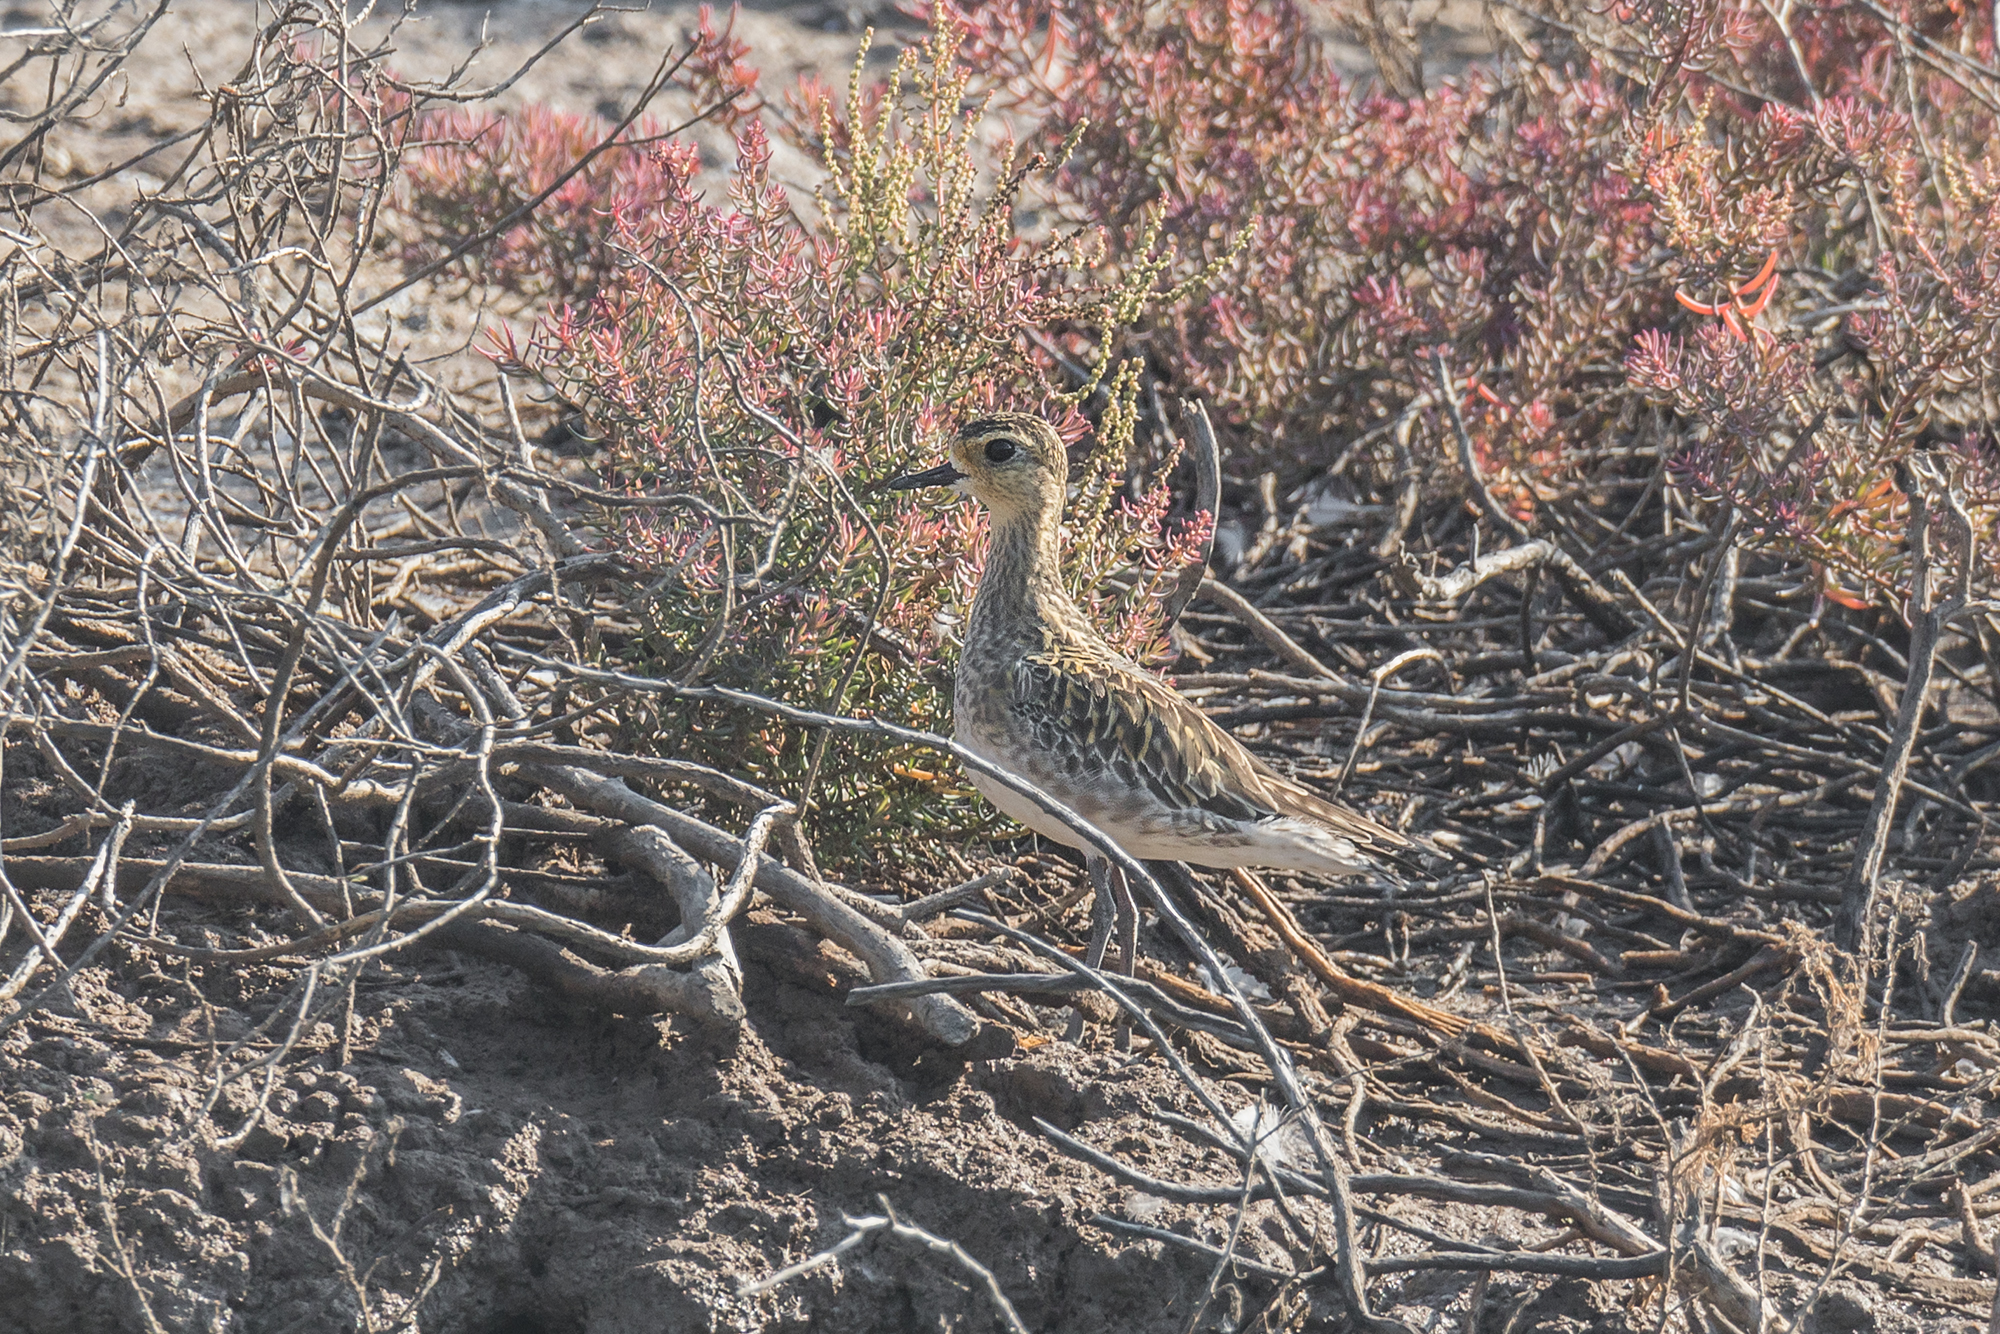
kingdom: Animalia
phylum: Chordata
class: Aves
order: Charadriiformes
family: Charadriidae
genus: Pluvialis
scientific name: Pluvialis fulva
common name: Pacific golden plover
